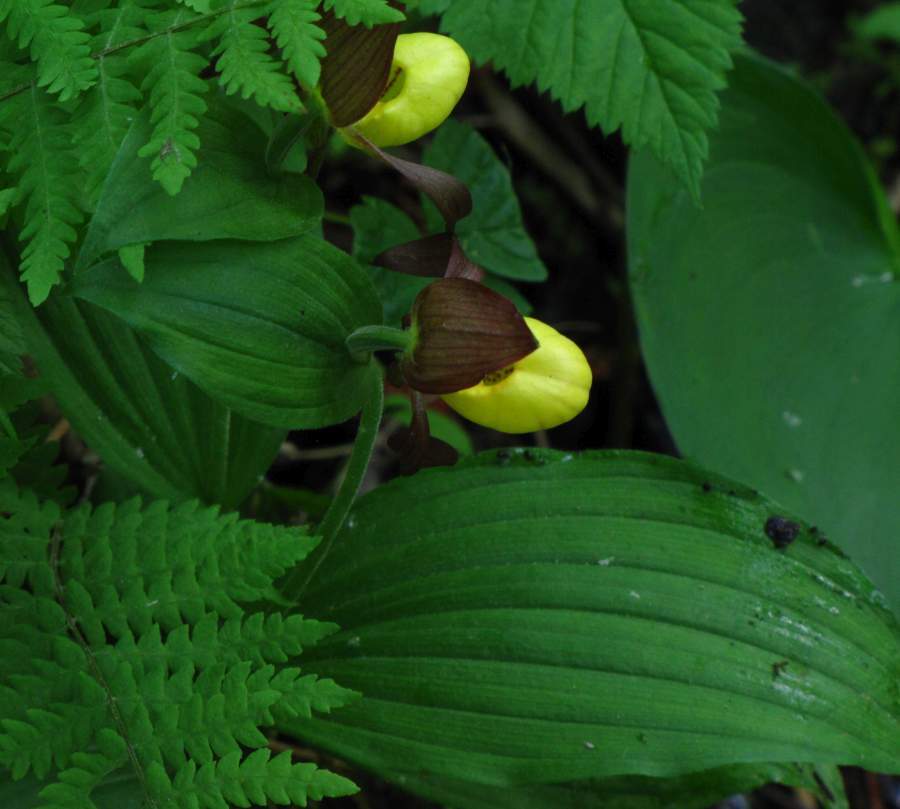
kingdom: Plantae
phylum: Tracheophyta
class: Liliopsida
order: Asparagales
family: Orchidaceae
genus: Cypripedium
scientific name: Cypripedium parviflorum
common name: American yellow lady's-slipper
